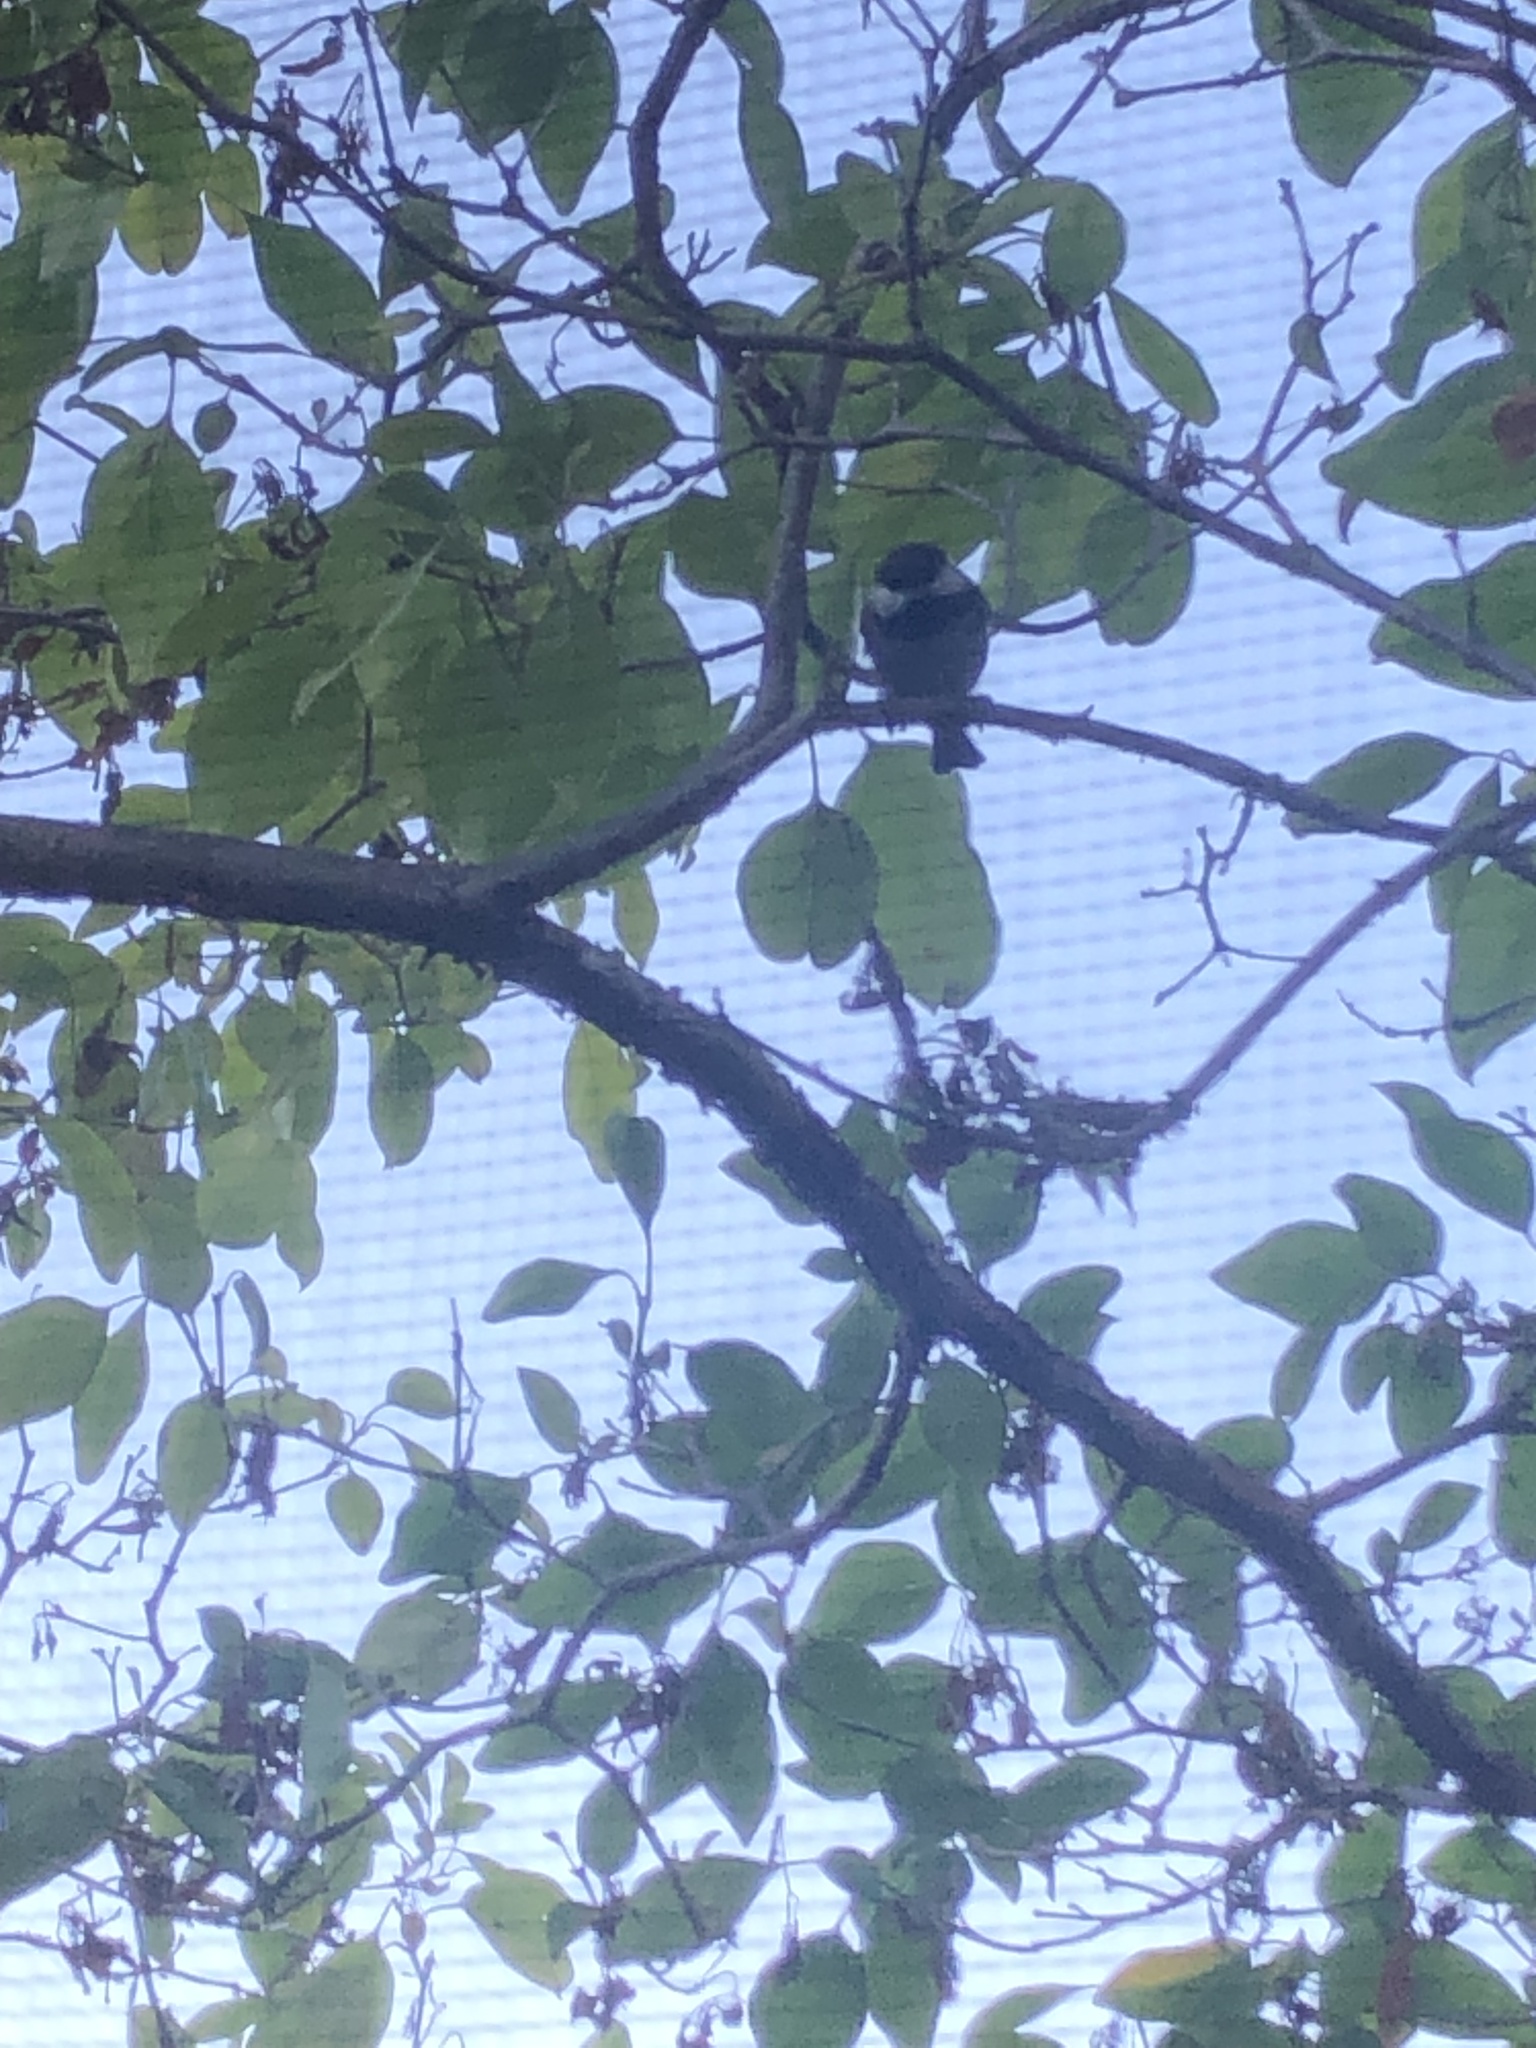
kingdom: Animalia
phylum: Chordata
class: Aves
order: Passeriformes
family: Paridae
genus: Poecile
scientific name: Poecile rufescens
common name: Chestnut-backed chickadee
